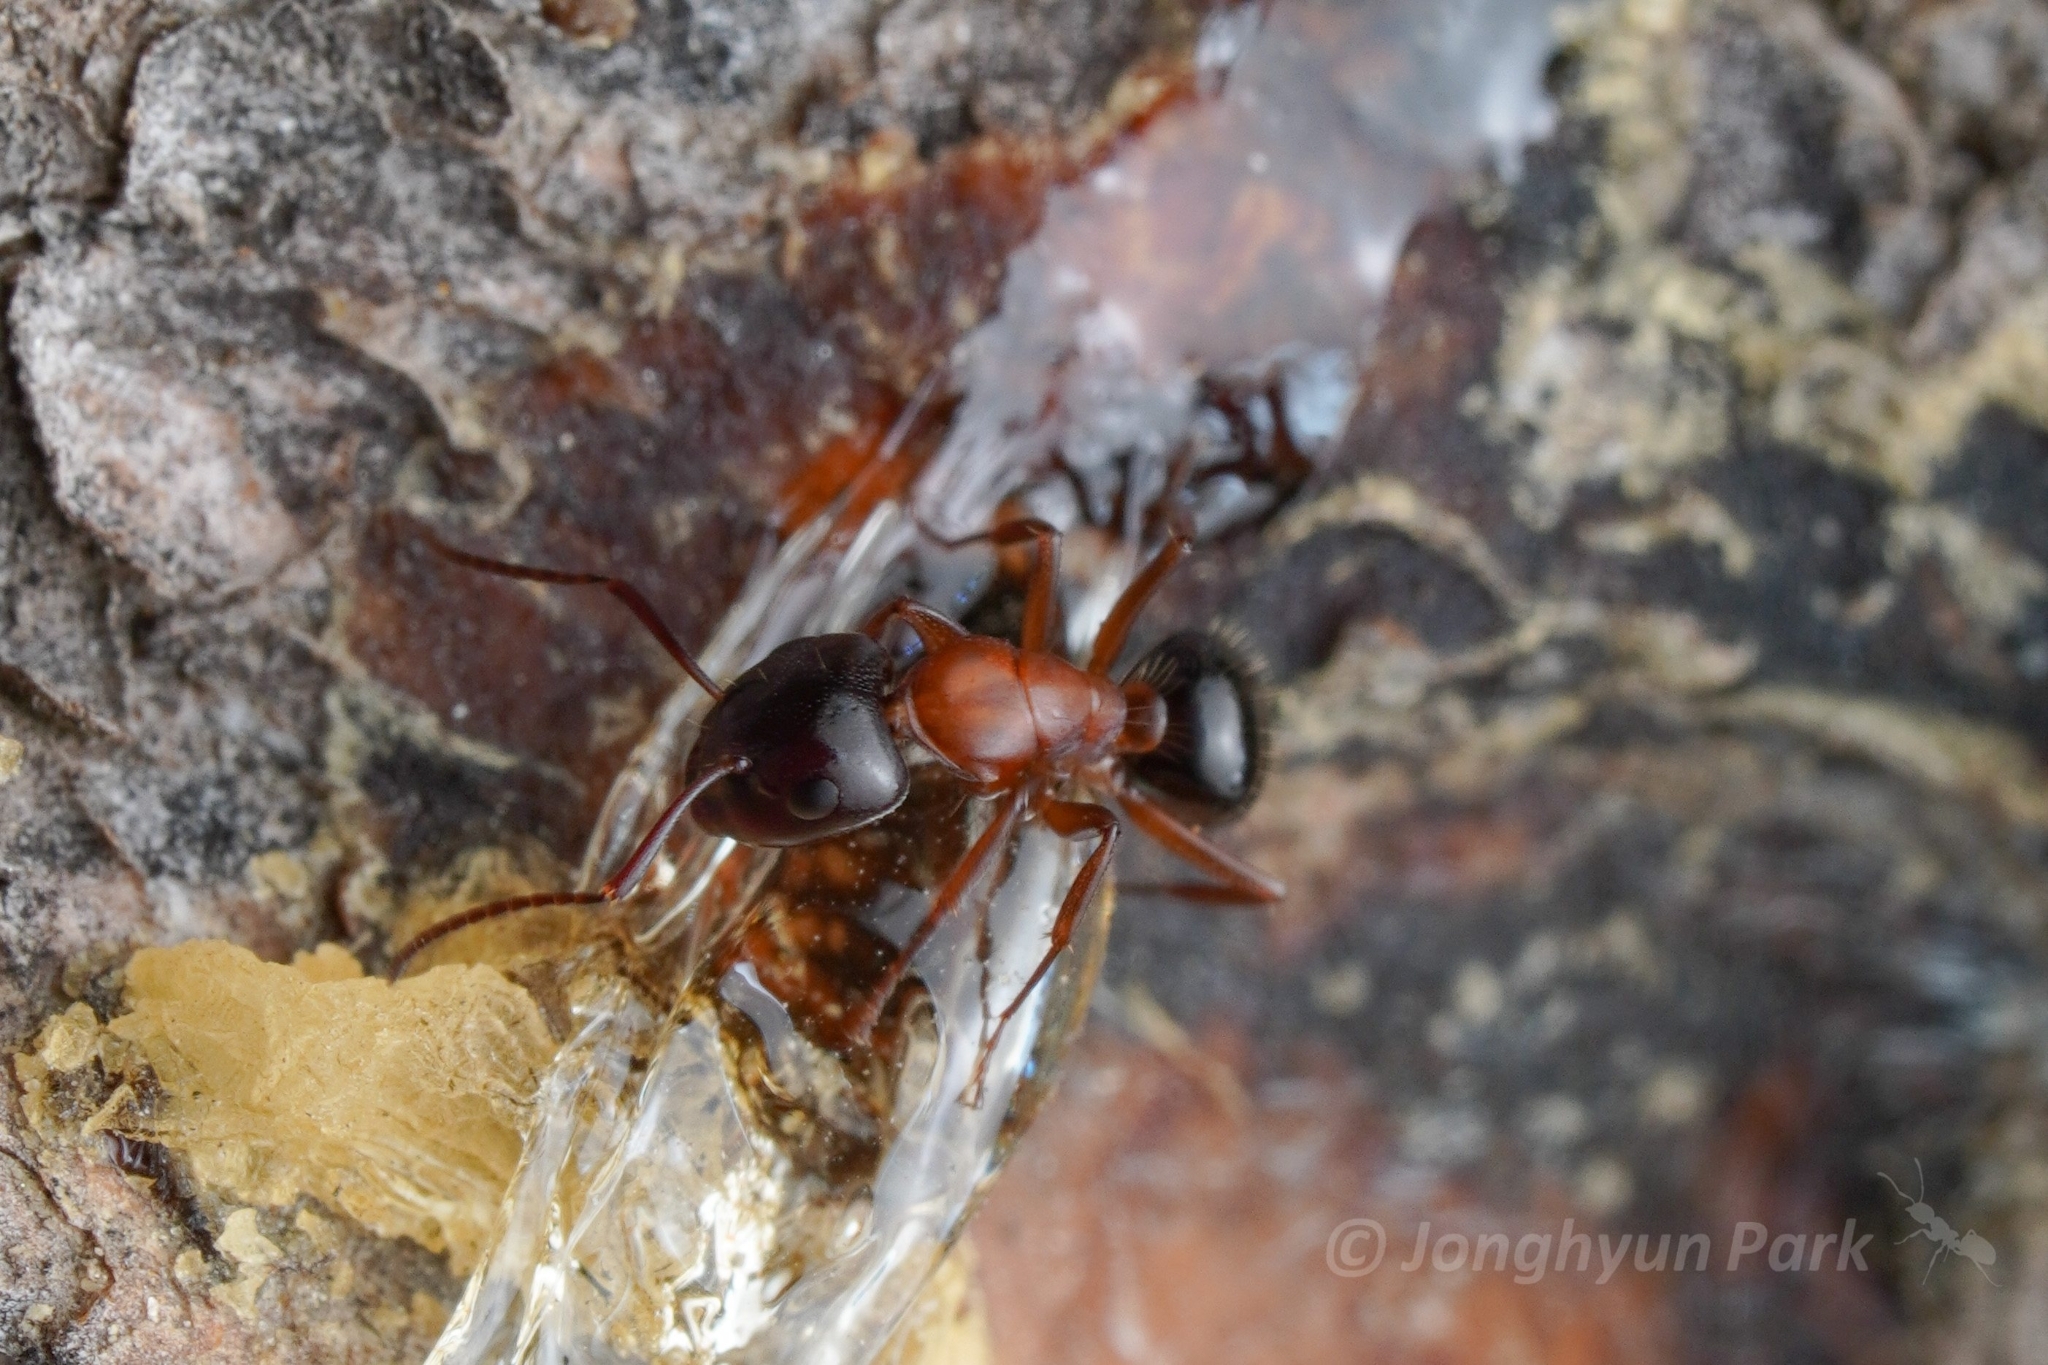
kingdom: Animalia
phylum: Arthropoda
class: Insecta
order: Hymenoptera
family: Formicidae
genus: Camponotus
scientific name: Camponotus clarithorax
